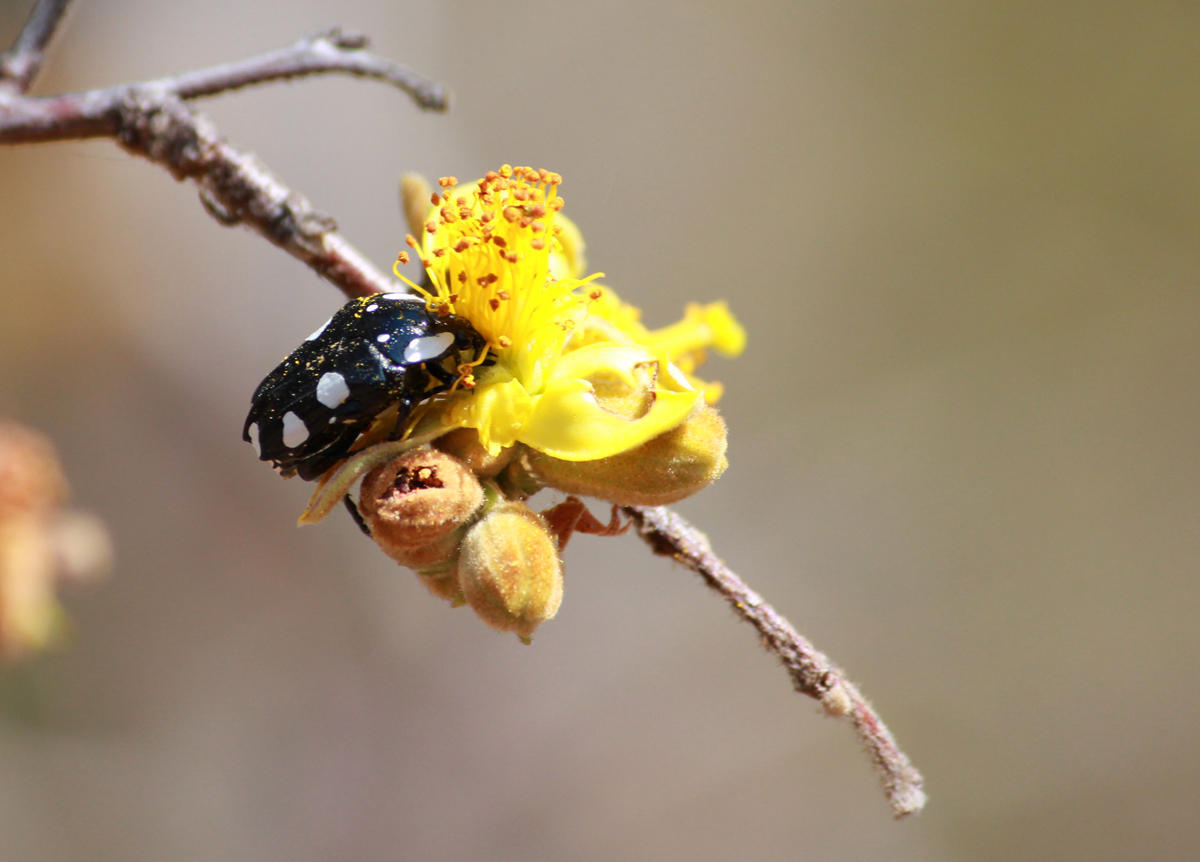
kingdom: Animalia
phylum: Arthropoda
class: Insecta
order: Coleoptera
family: Scarabaeidae
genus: Mausoleopsis
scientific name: Mausoleopsis amabilis
